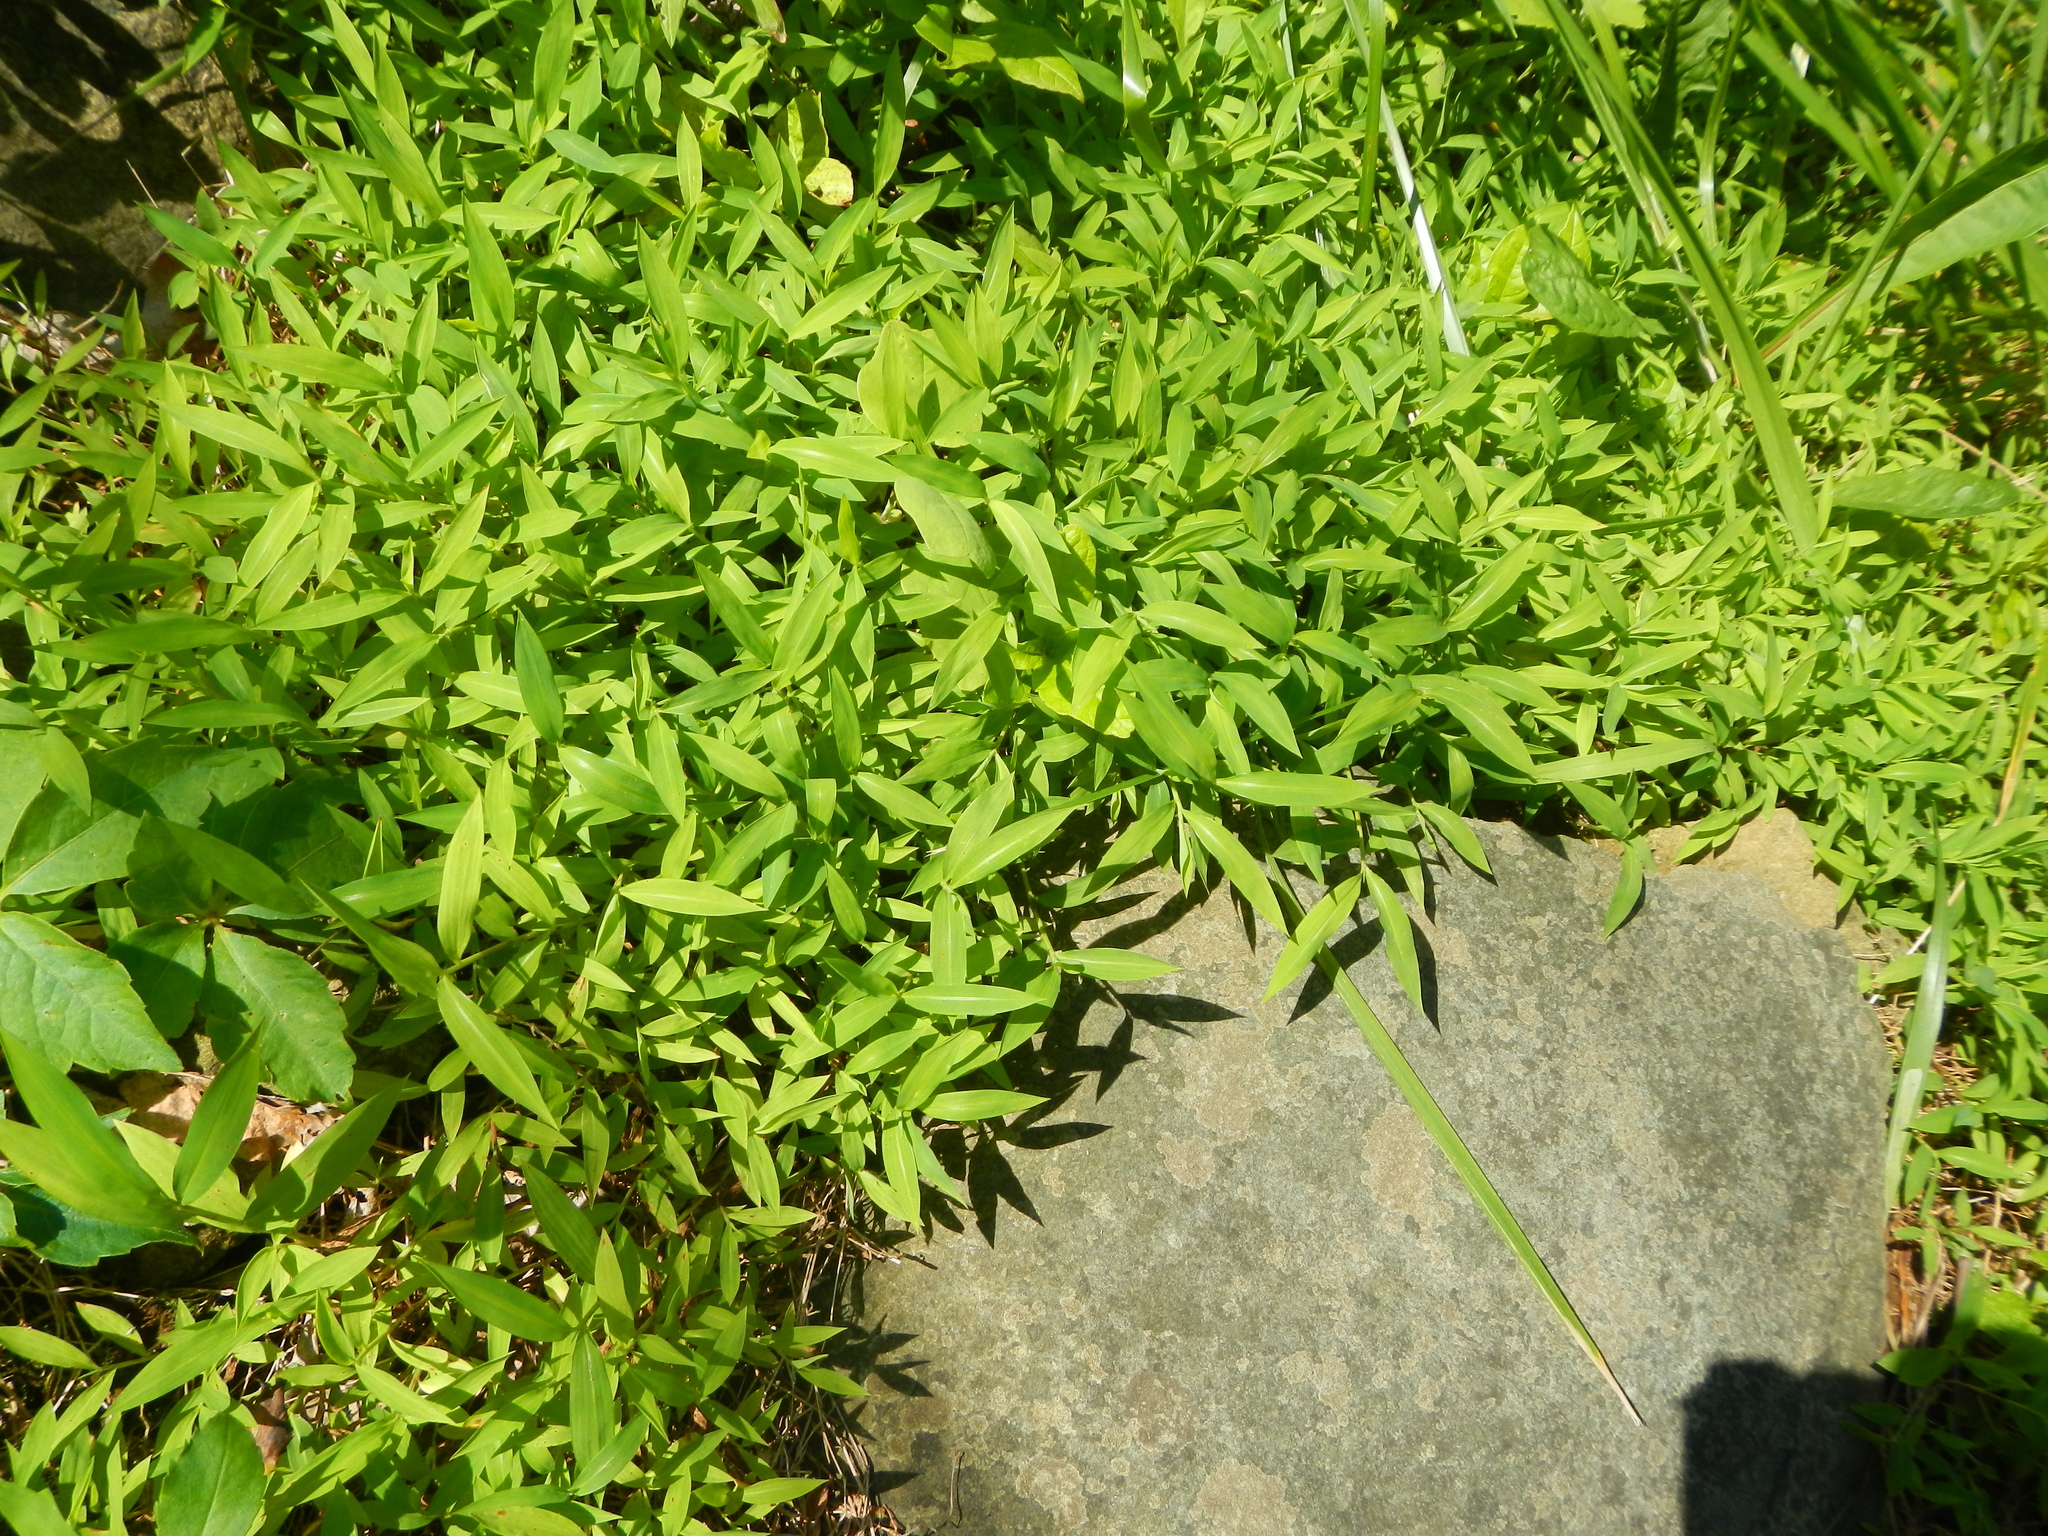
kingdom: Plantae
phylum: Tracheophyta
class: Liliopsida
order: Poales
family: Poaceae
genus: Microstegium
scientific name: Microstegium vimineum
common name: Japanese stiltgrass
